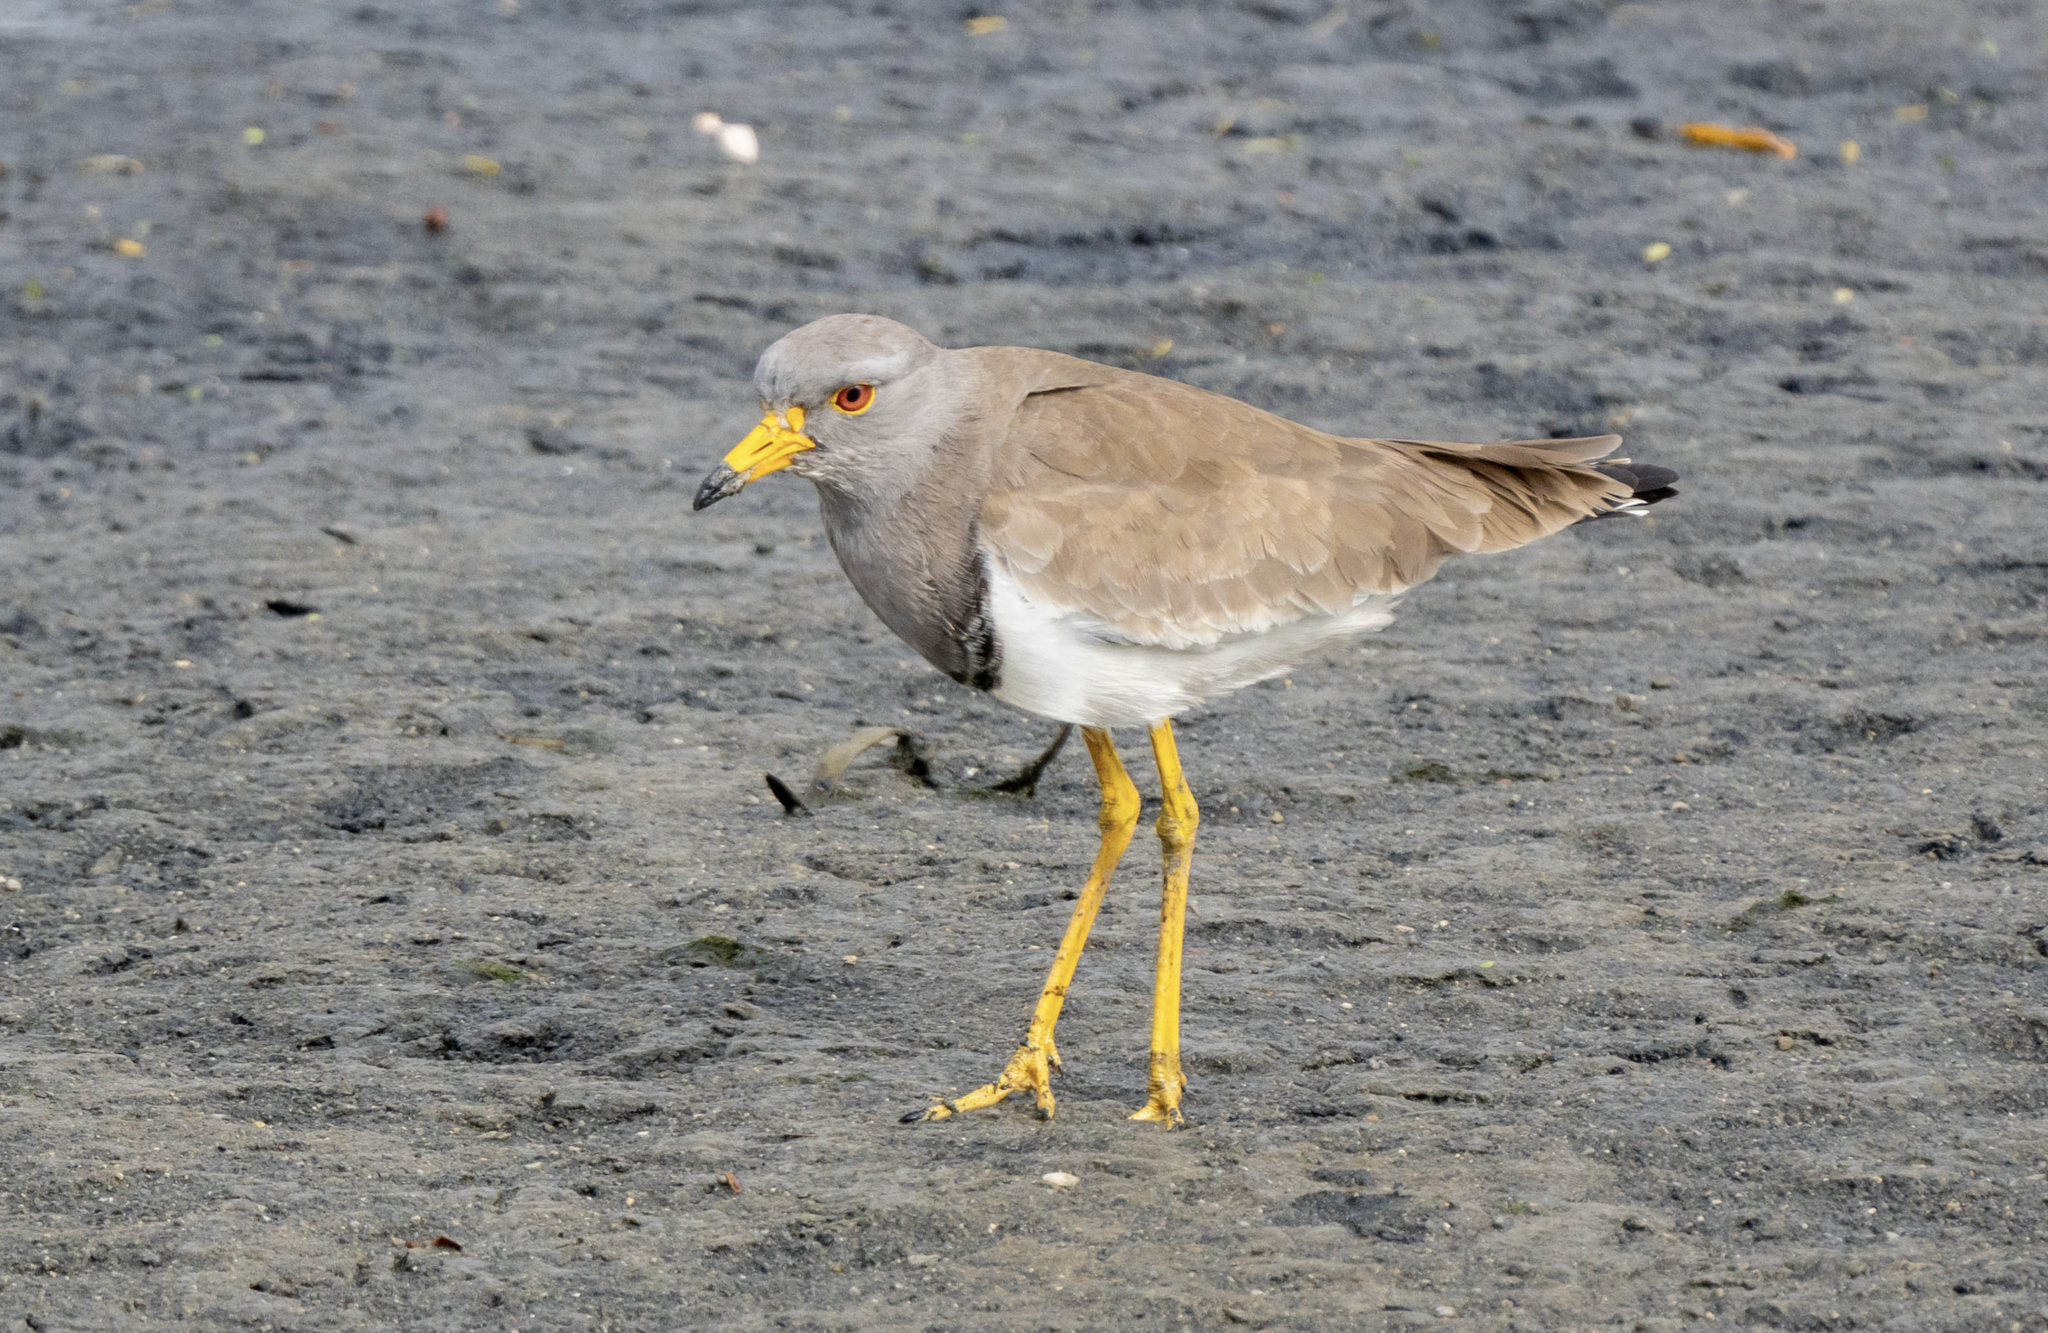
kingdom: Animalia
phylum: Chordata
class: Aves
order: Charadriiformes
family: Charadriidae
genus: Vanellus
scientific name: Vanellus cinereus
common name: Grey-headed lapwing
